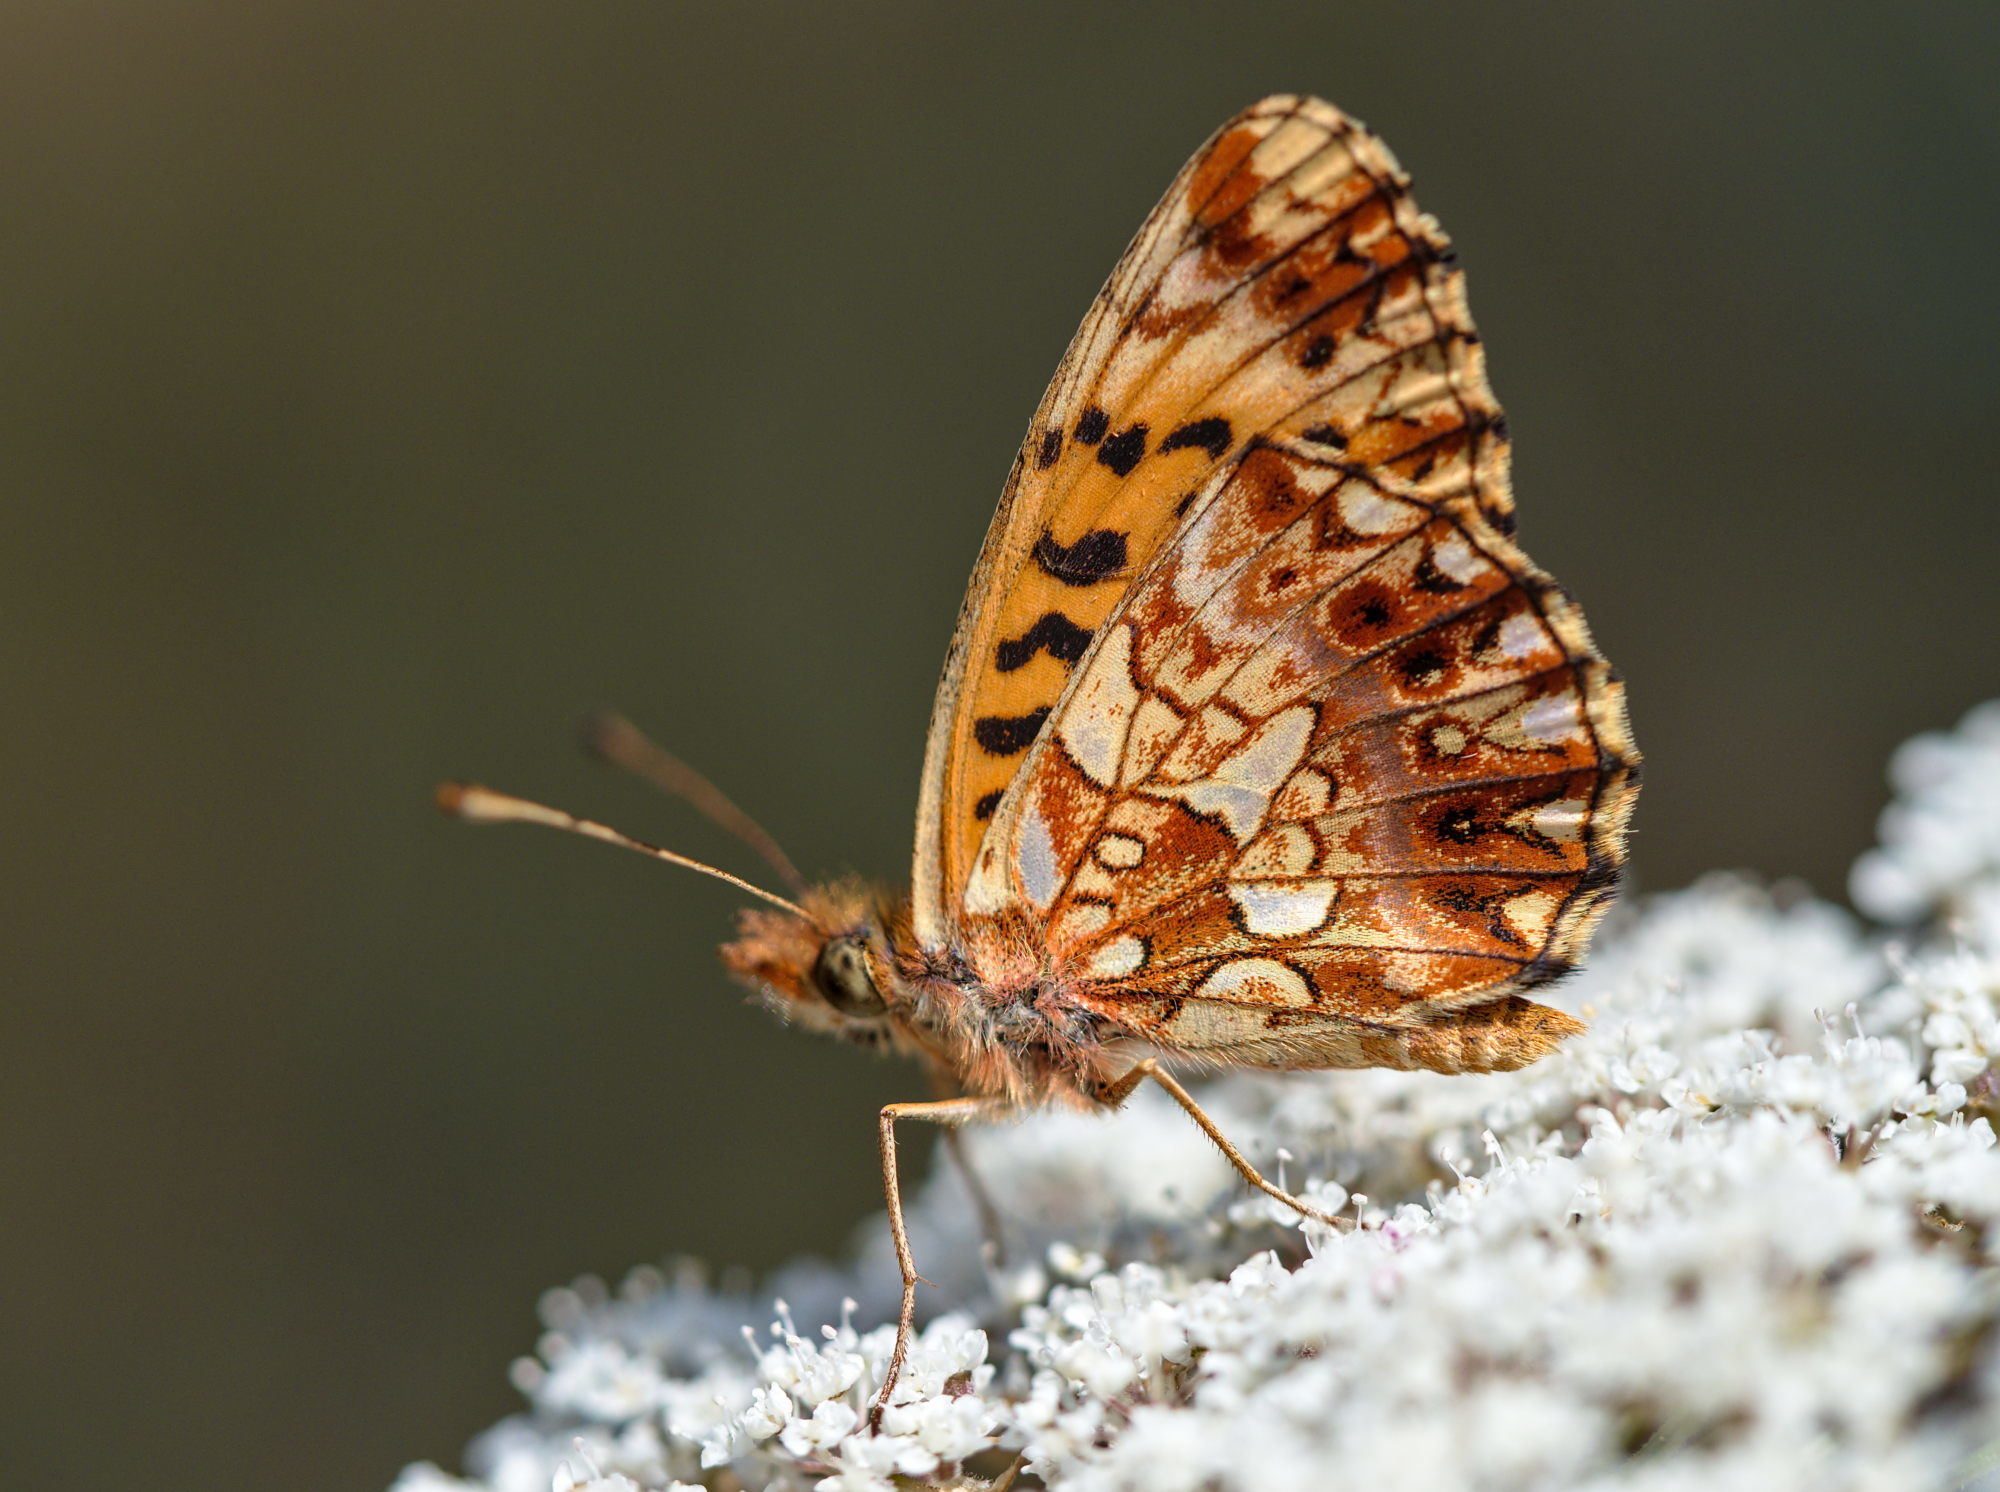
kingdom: Animalia
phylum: Arthropoda
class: Insecta
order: Lepidoptera
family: Nymphalidae
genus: Boloria
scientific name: Boloria dia
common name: Weaver's fritillary
